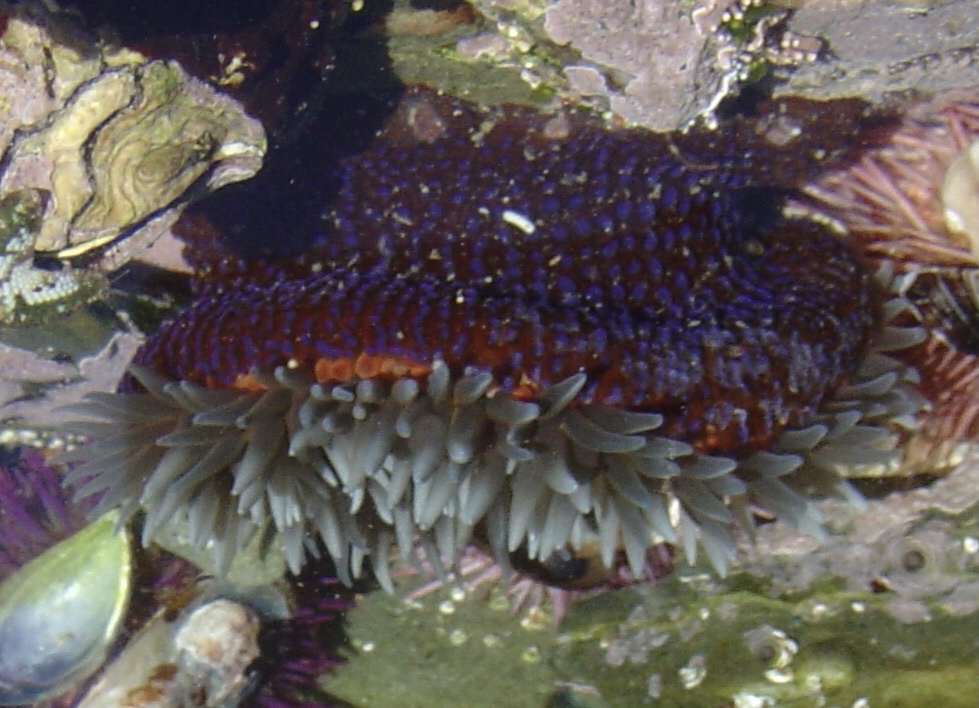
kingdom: Animalia
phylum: Cnidaria
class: Anthozoa
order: Actiniaria
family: Actiniidae
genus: Bunodosoma
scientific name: Bunodosoma capense
